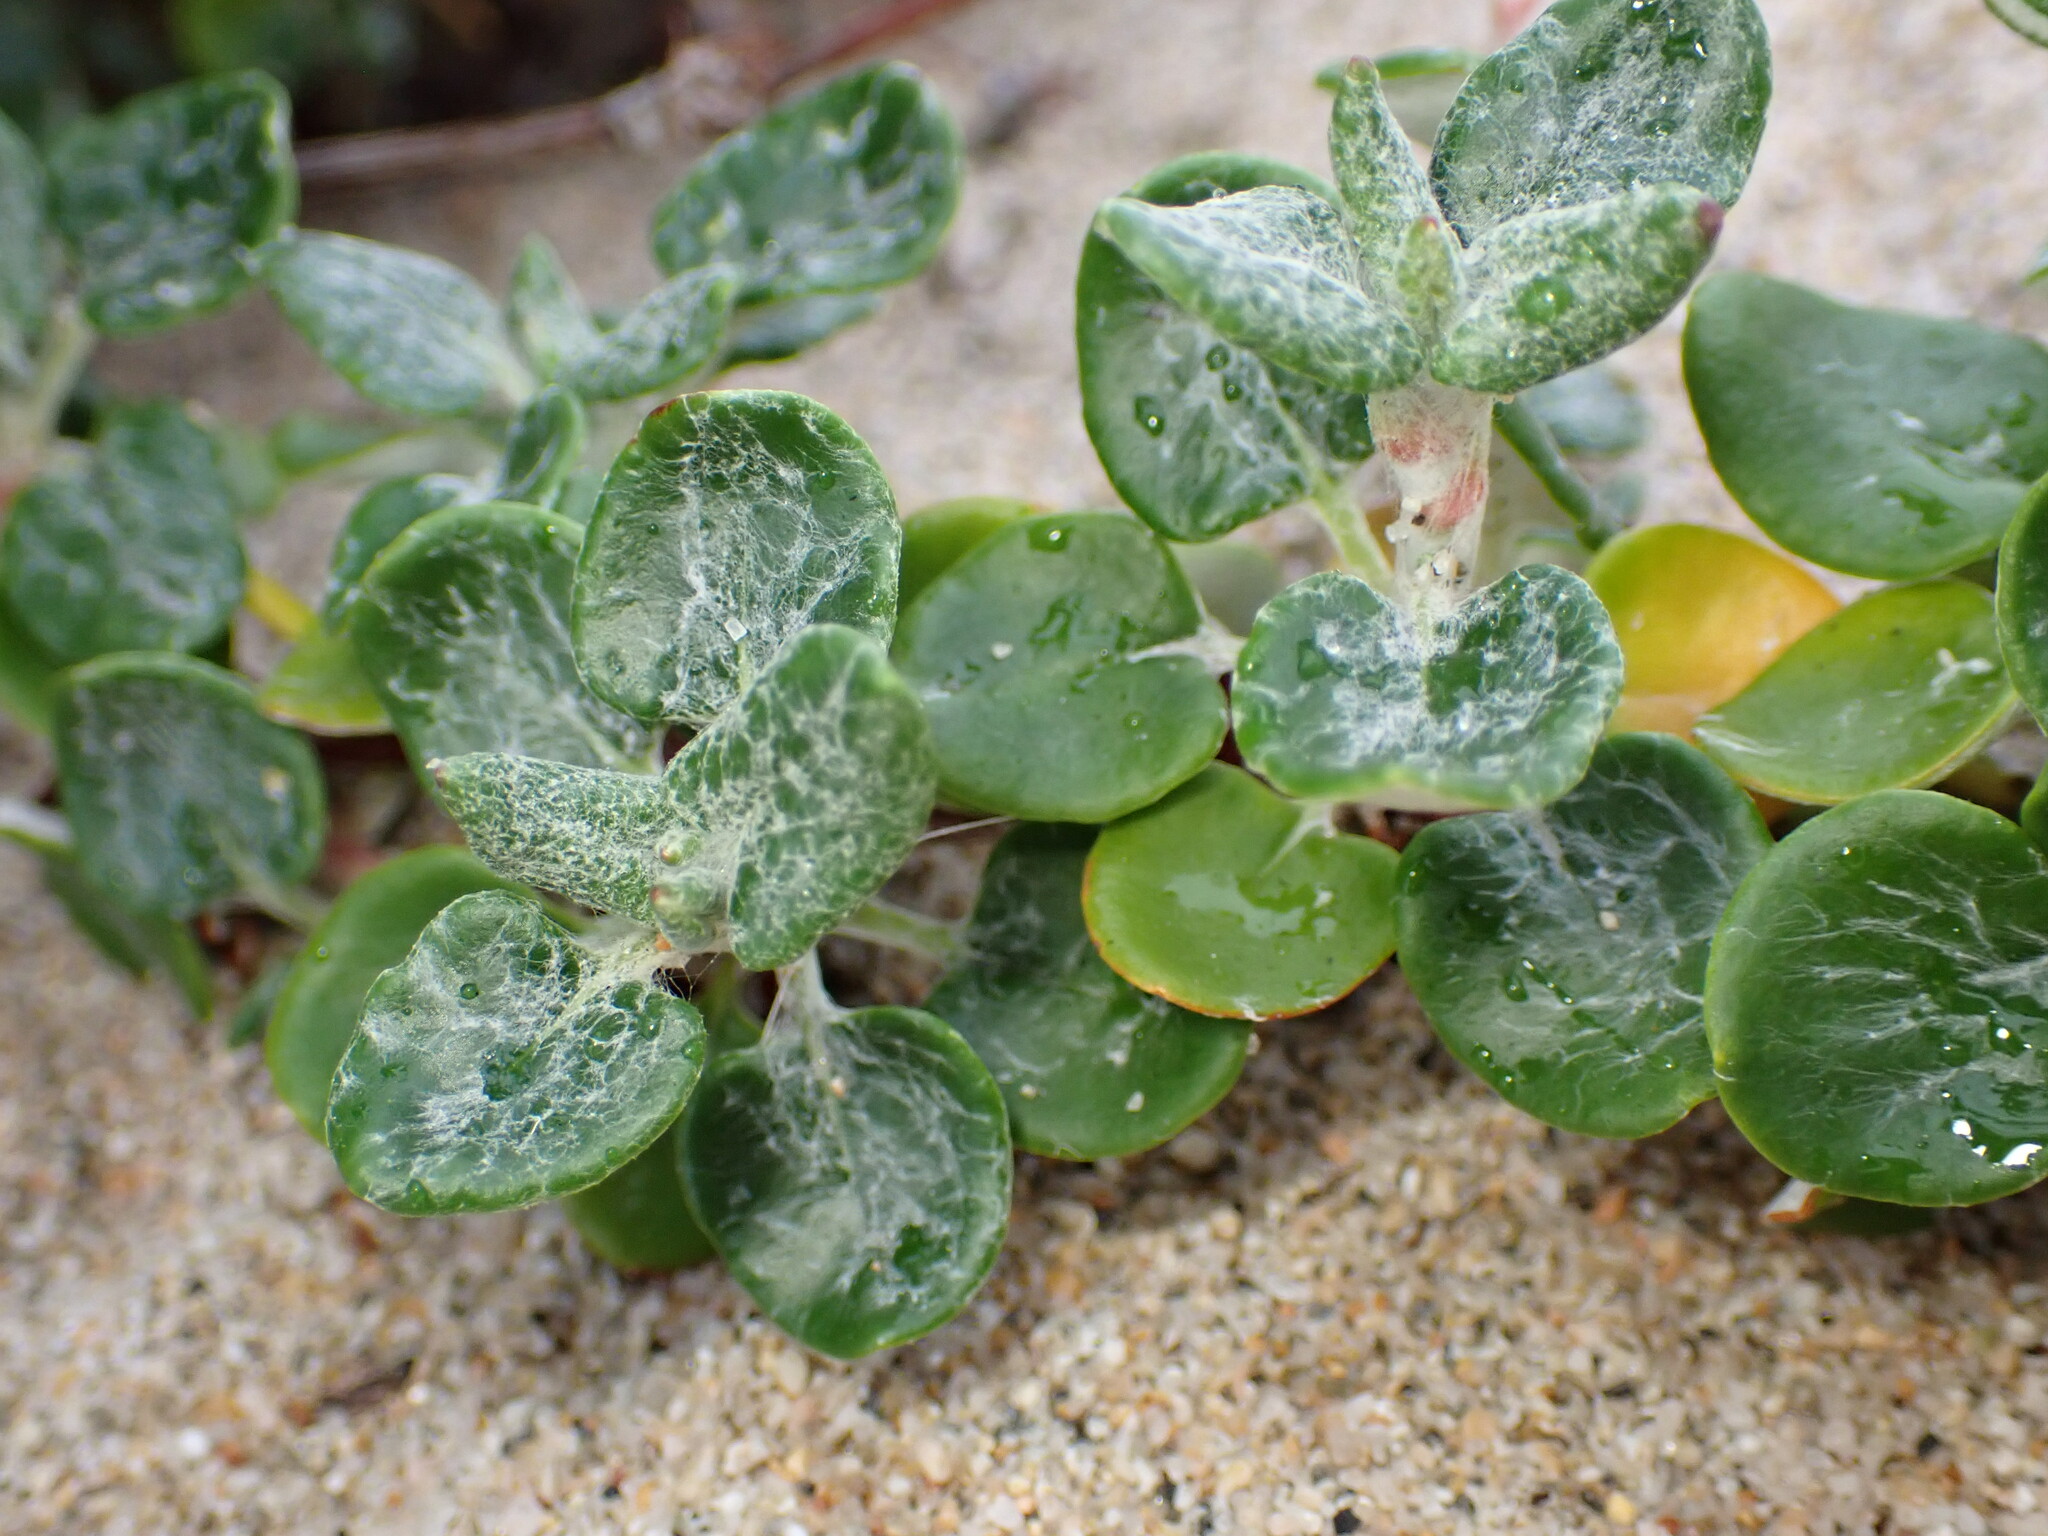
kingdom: Plantae
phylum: Tracheophyta
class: Magnoliopsida
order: Caryophyllales
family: Polygonaceae
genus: Eriogonum
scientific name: Eriogonum parvifolium
